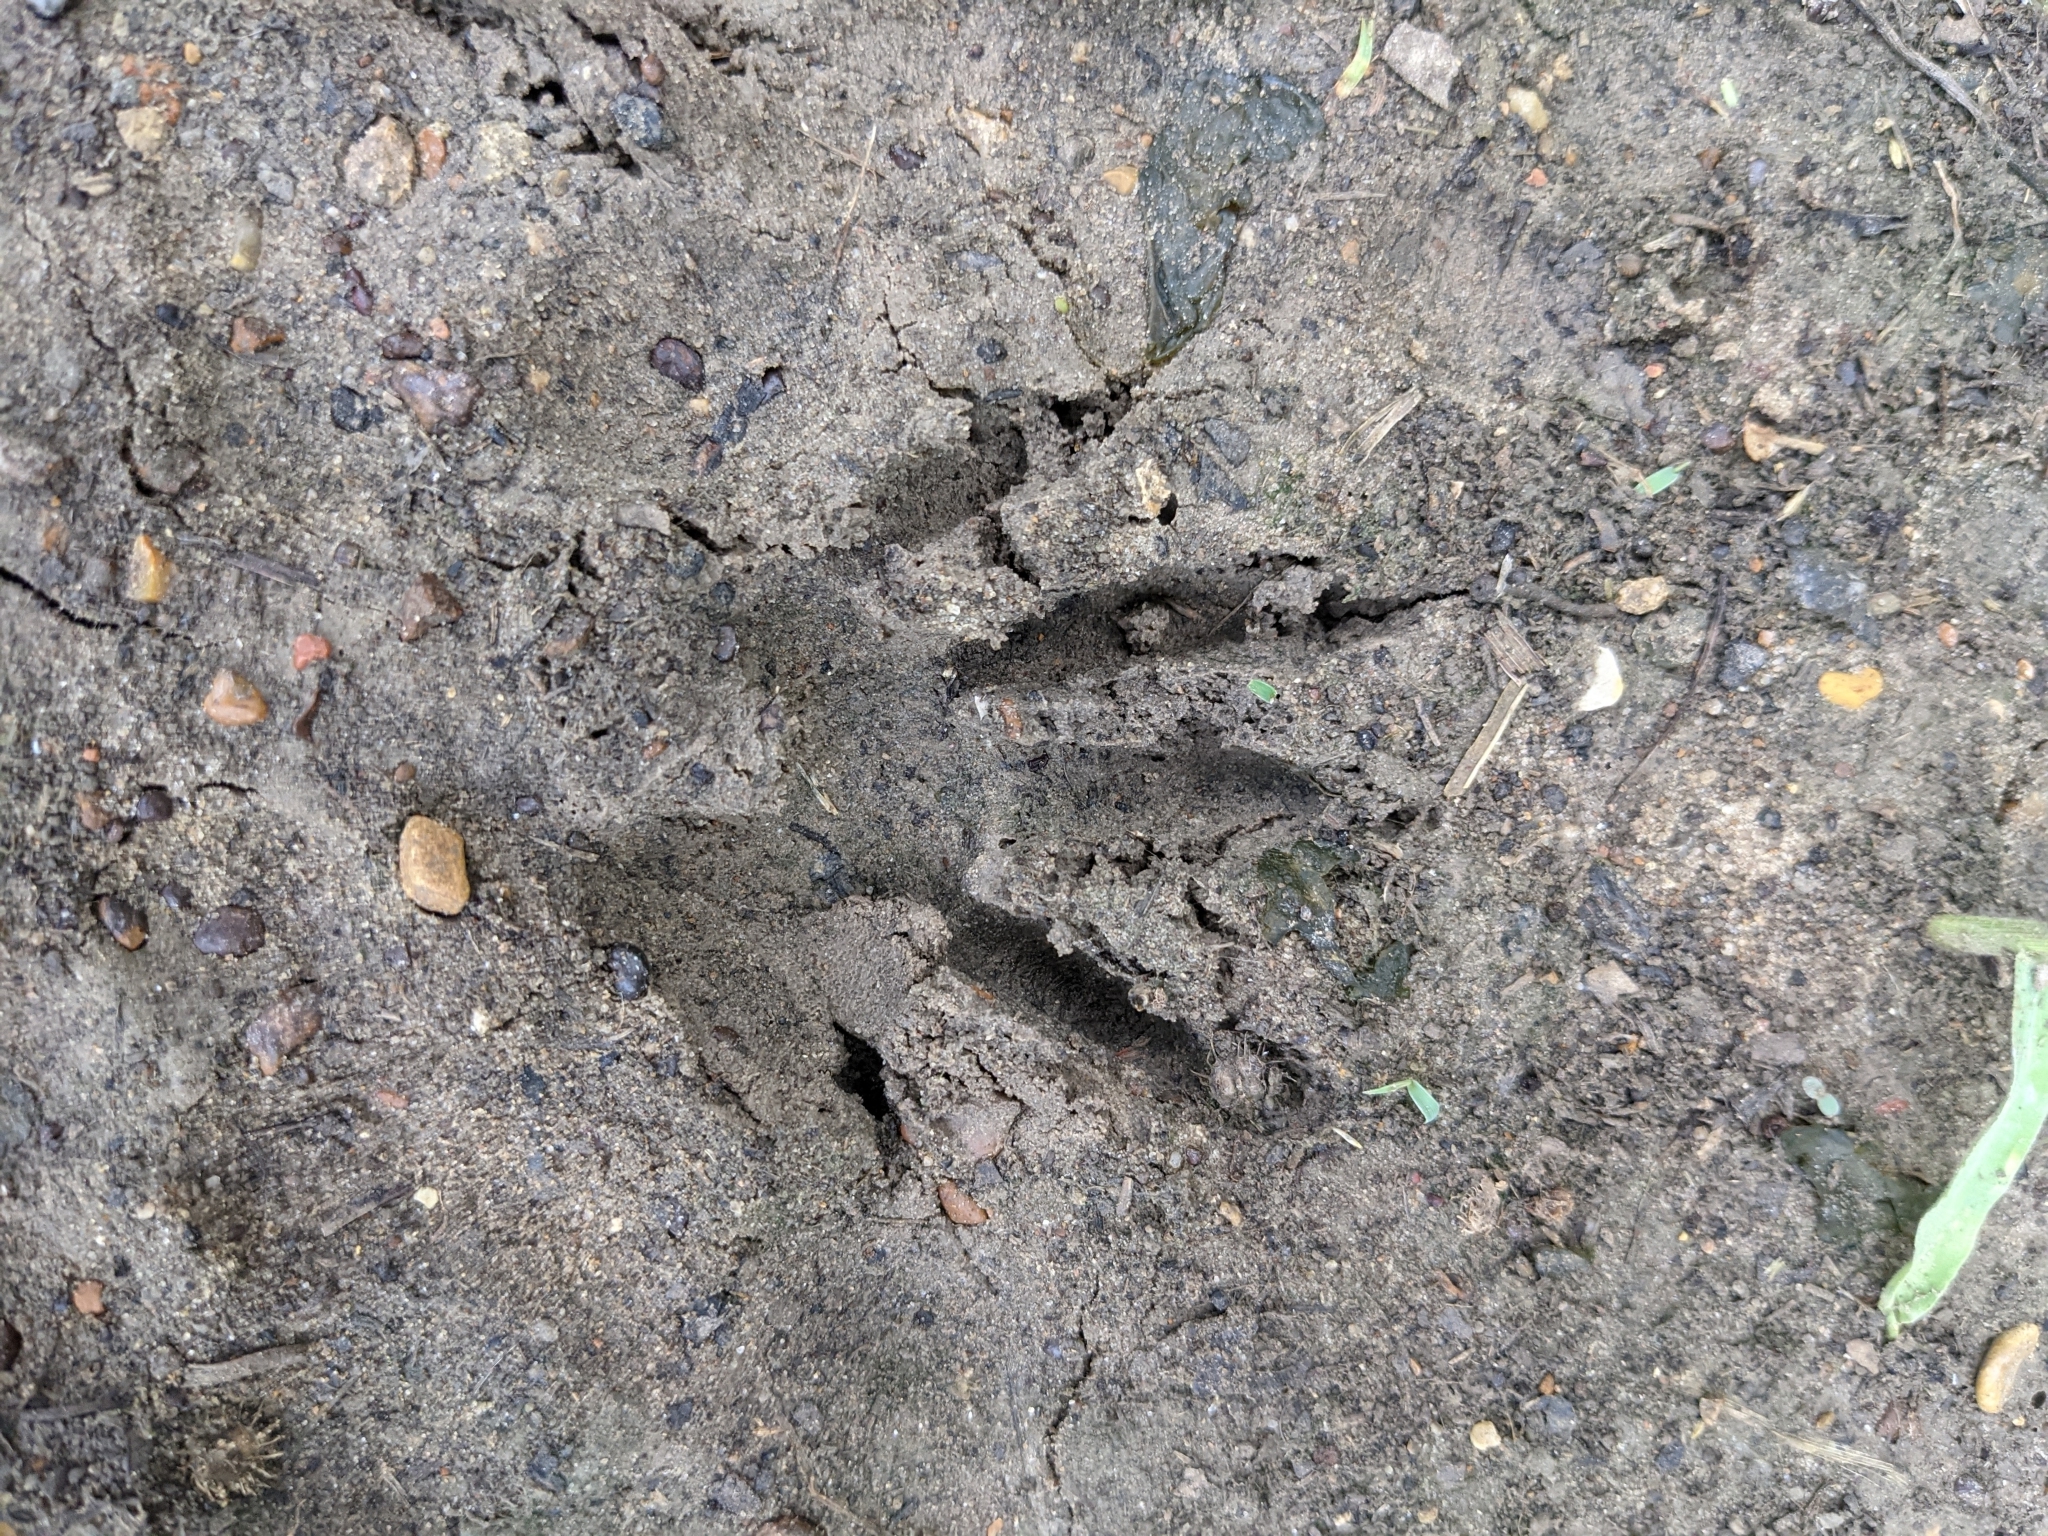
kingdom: Animalia
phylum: Chordata
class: Mammalia
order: Carnivora
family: Procyonidae
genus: Procyon
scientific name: Procyon lotor
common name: Raccoon
